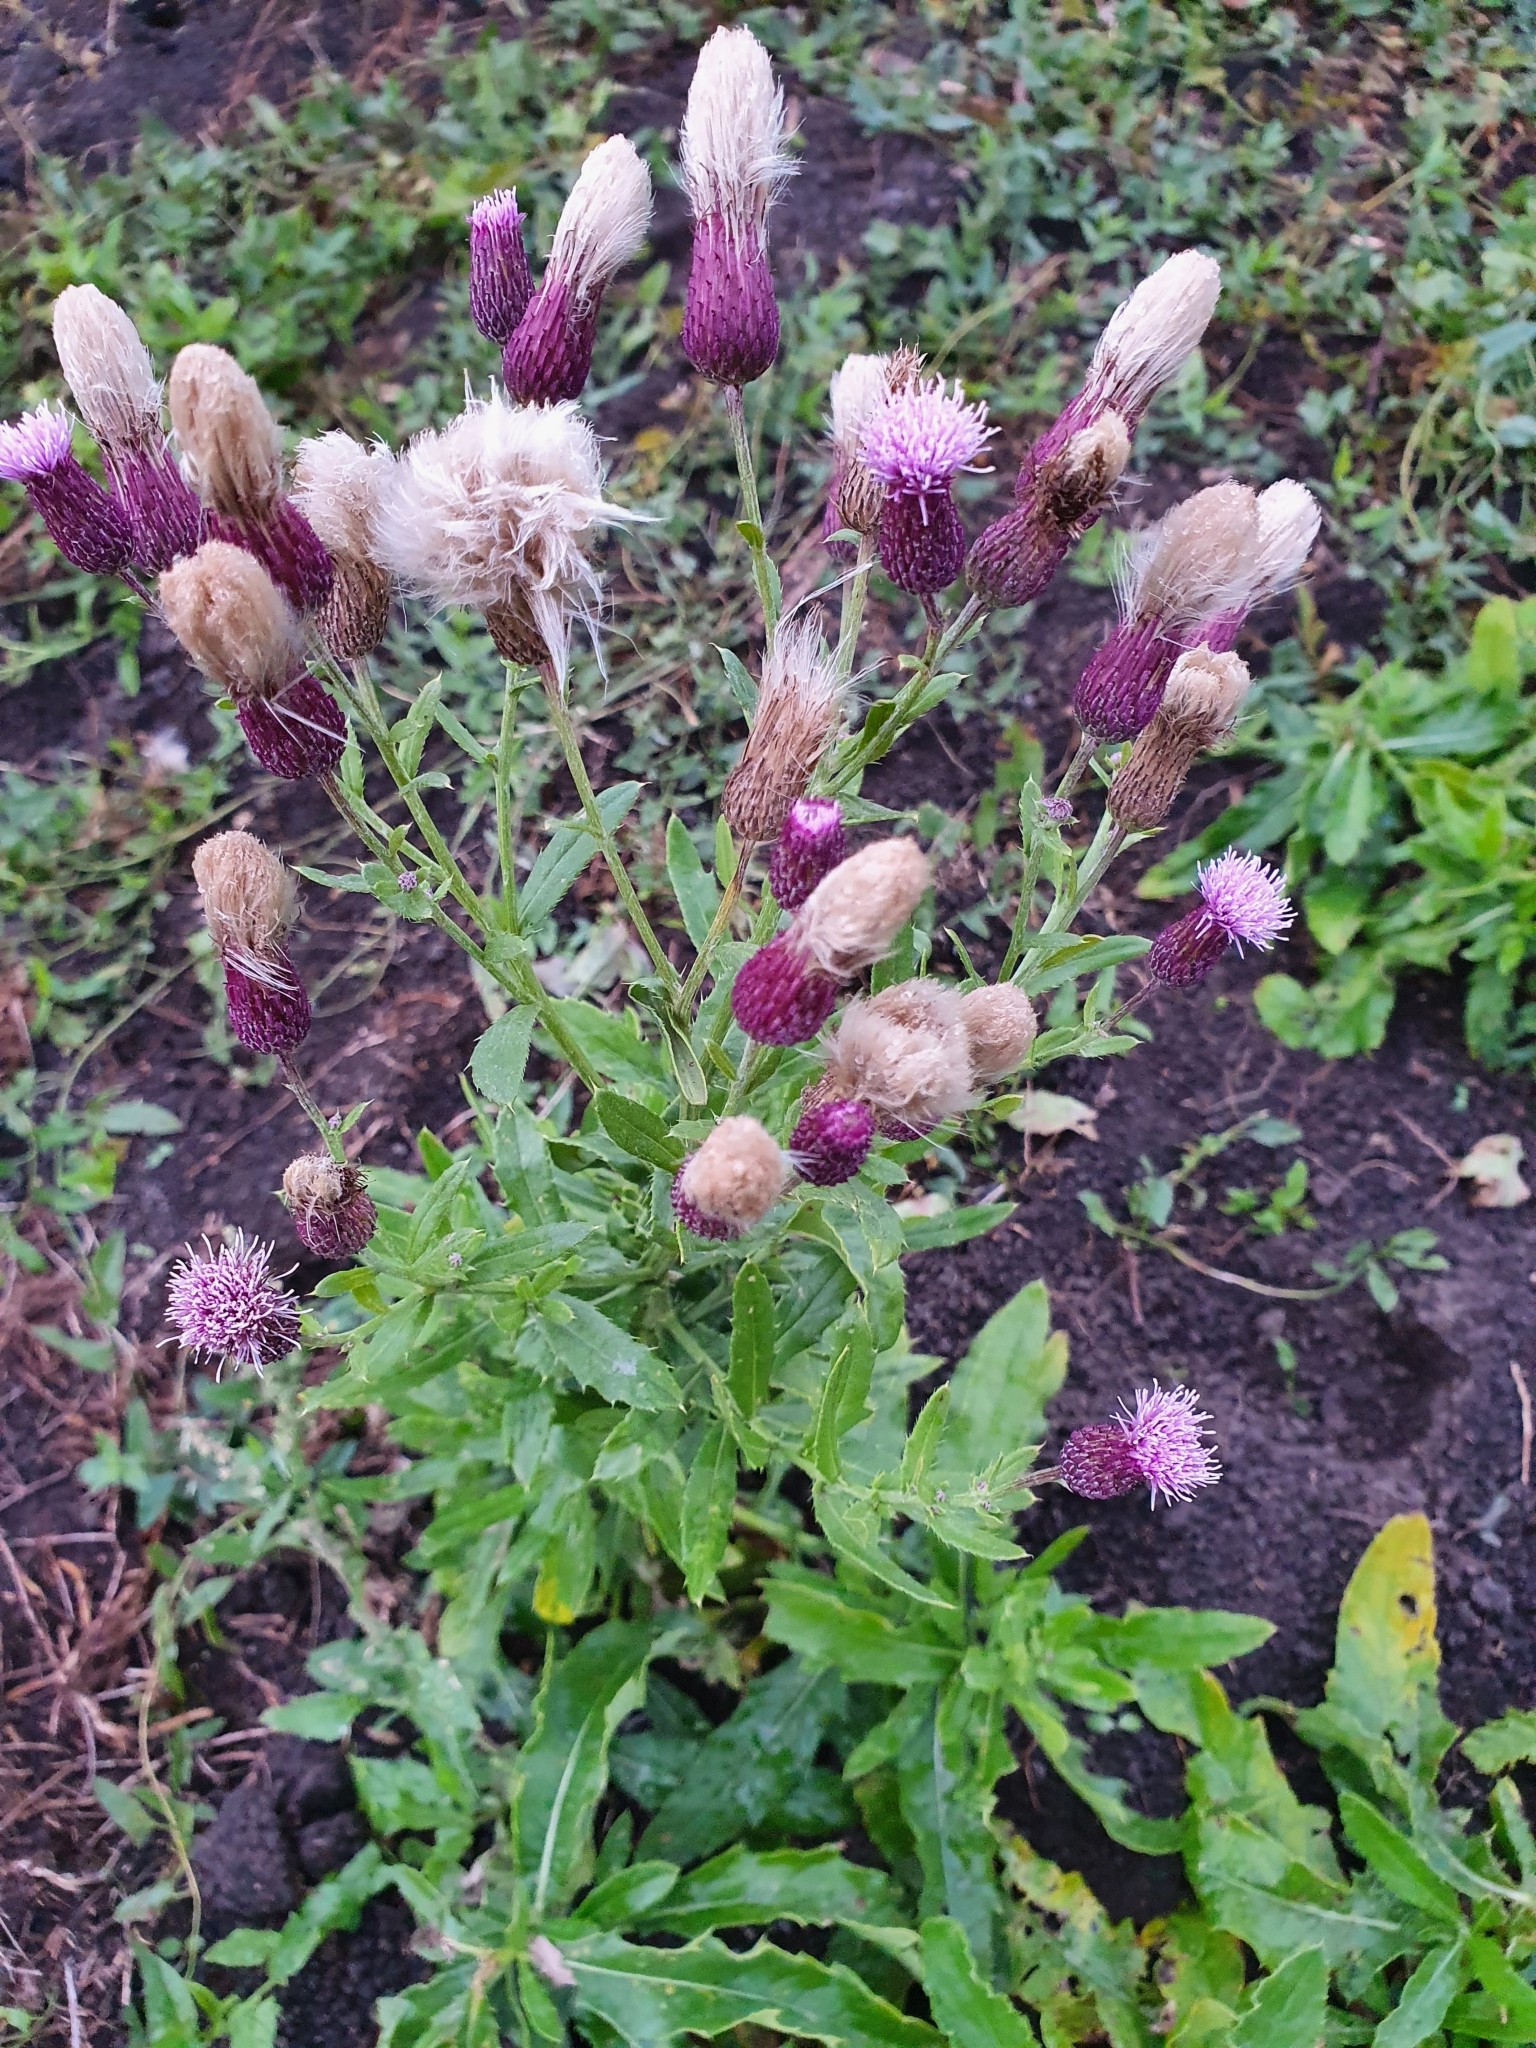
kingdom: Plantae
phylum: Tracheophyta
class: Magnoliopsida
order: Asterales
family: Asteraceae
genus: Cirsium
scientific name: Cirsium arvense
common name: Creeping thistle
